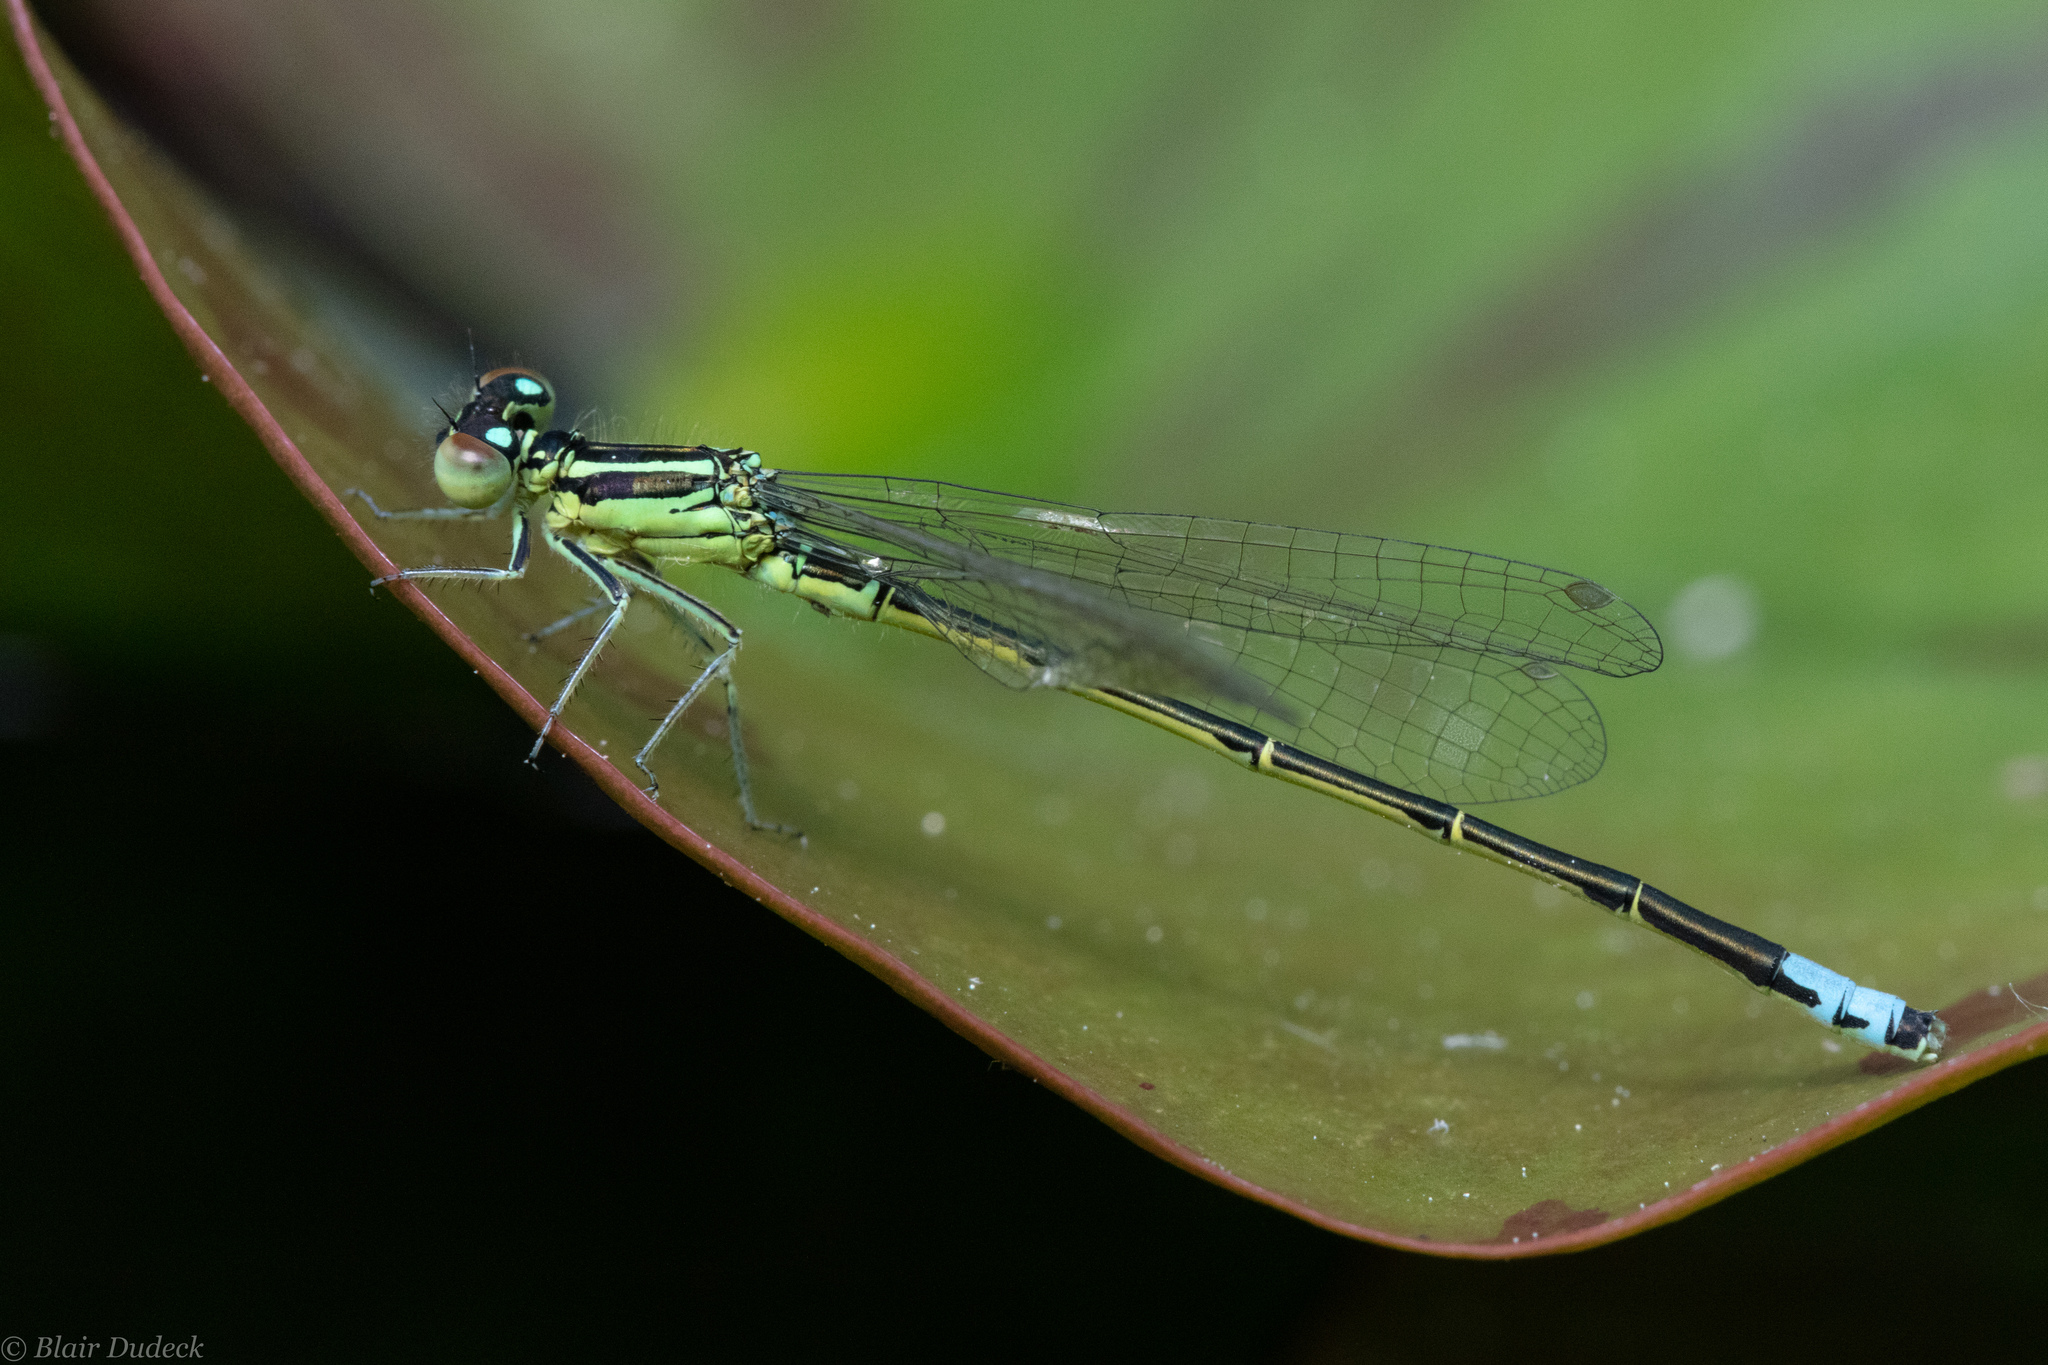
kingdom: Animalia
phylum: Arthropoda
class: Insecta
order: Odonata
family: Coenagrionidae
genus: Ischnura
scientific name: Ischnura perparva
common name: Western forktail
